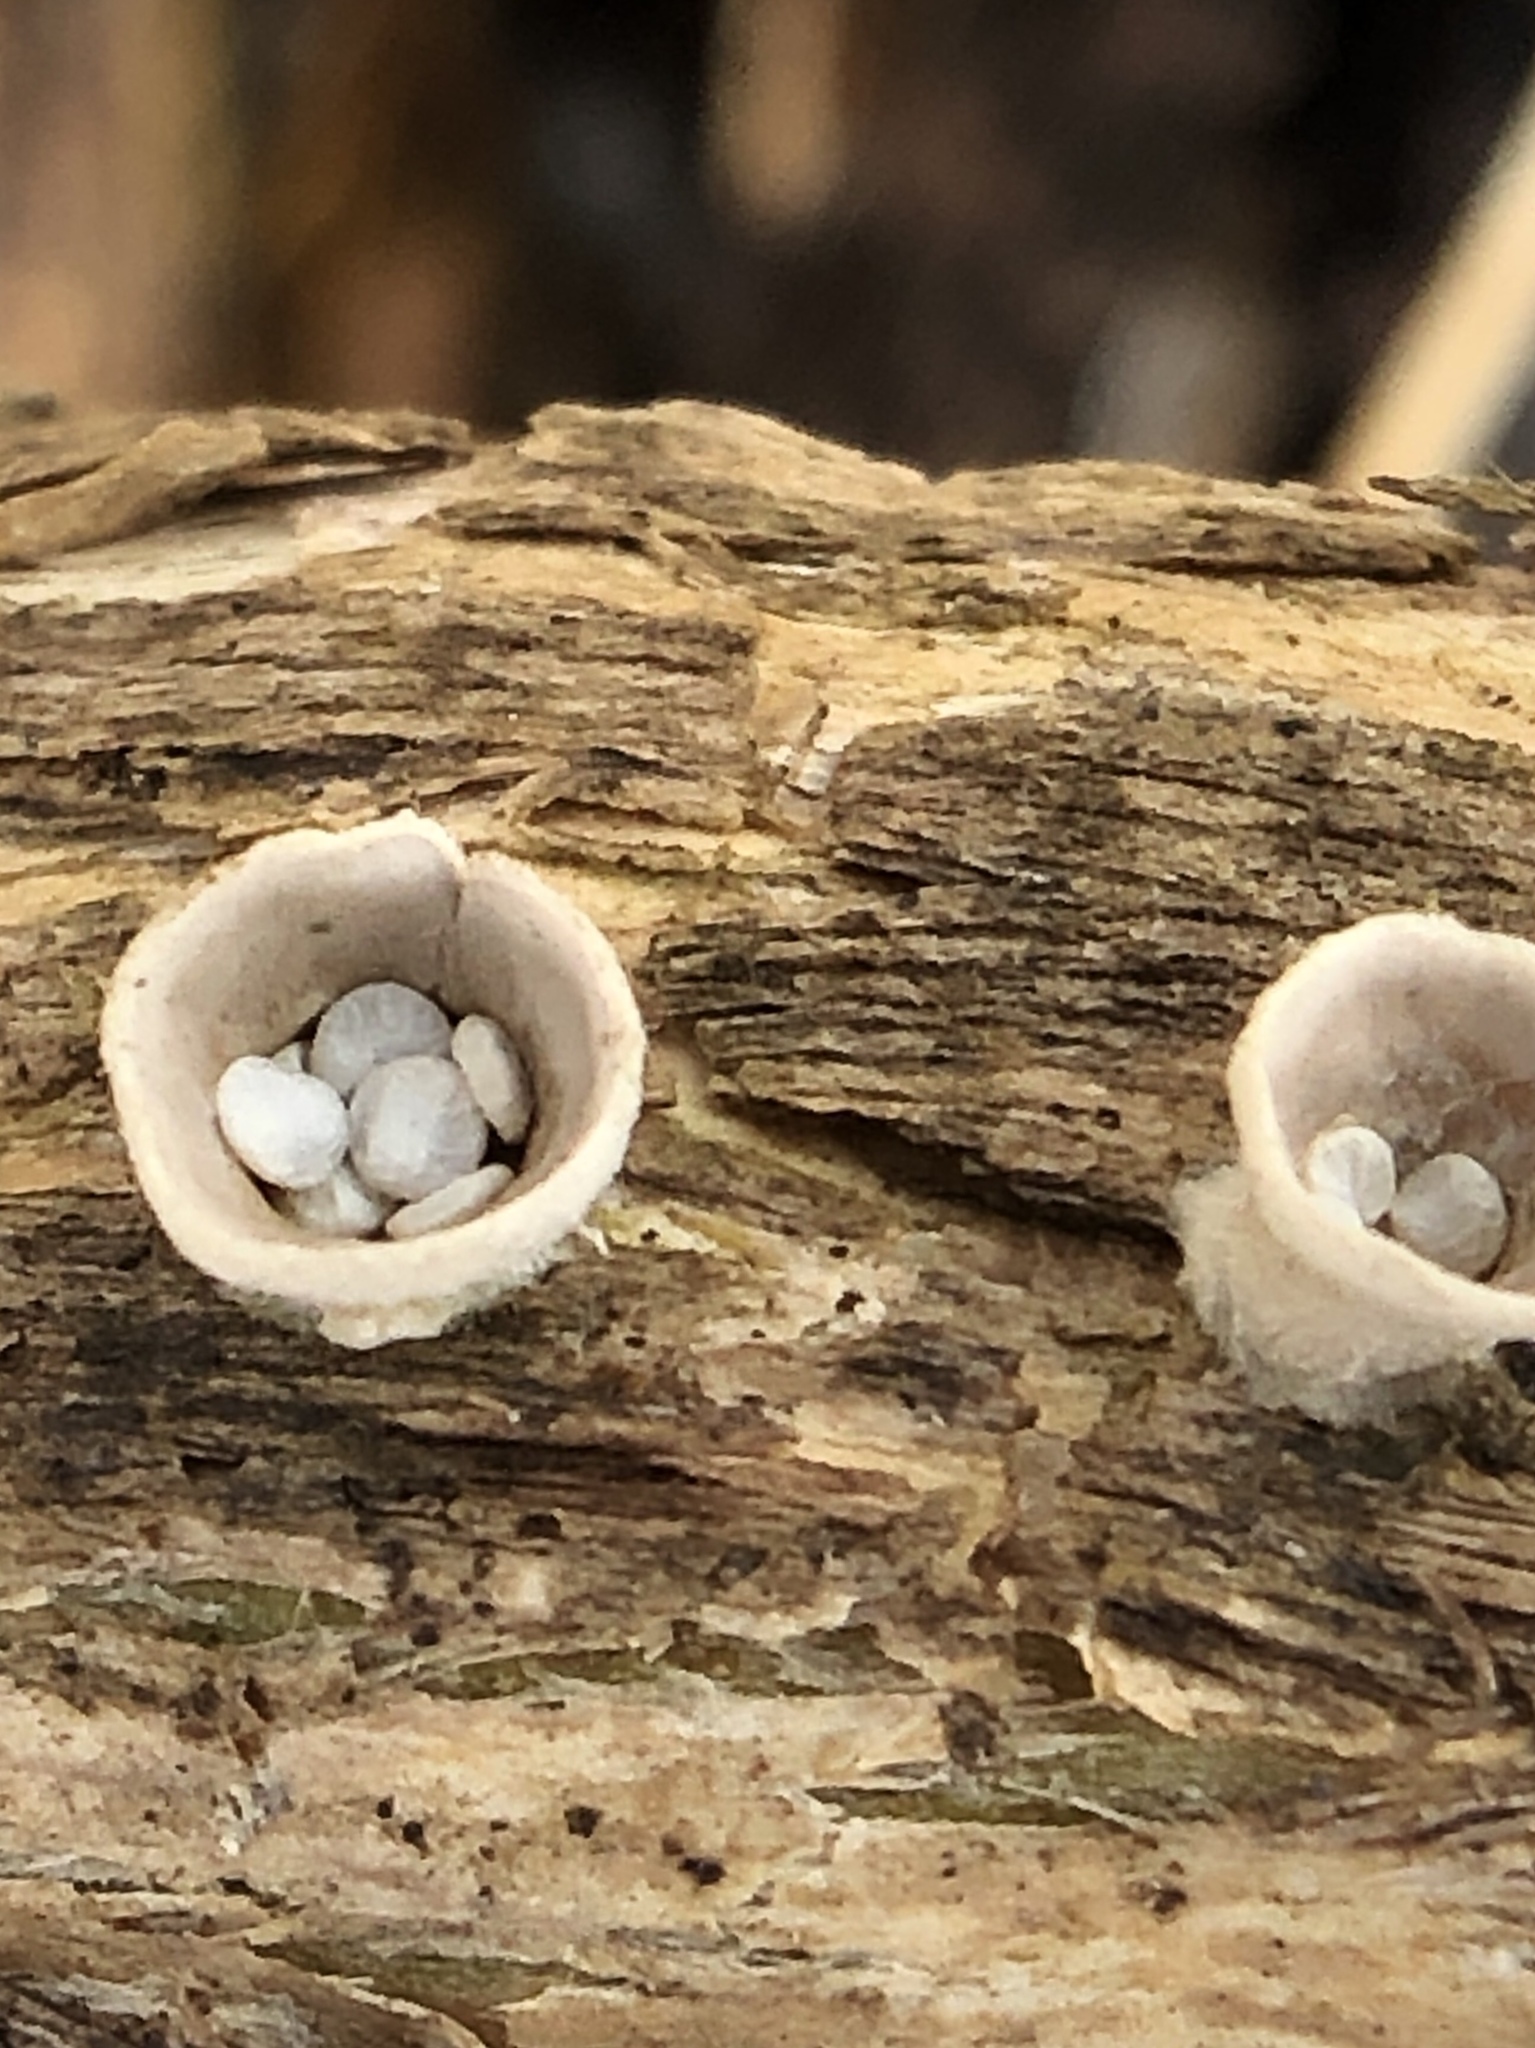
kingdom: Fungi
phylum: Basidiomycota
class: Agaricomycetes
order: Agaricales
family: Nidulariaceae
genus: Crucibulum
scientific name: Crucibulum laeve
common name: Common bird's nest
